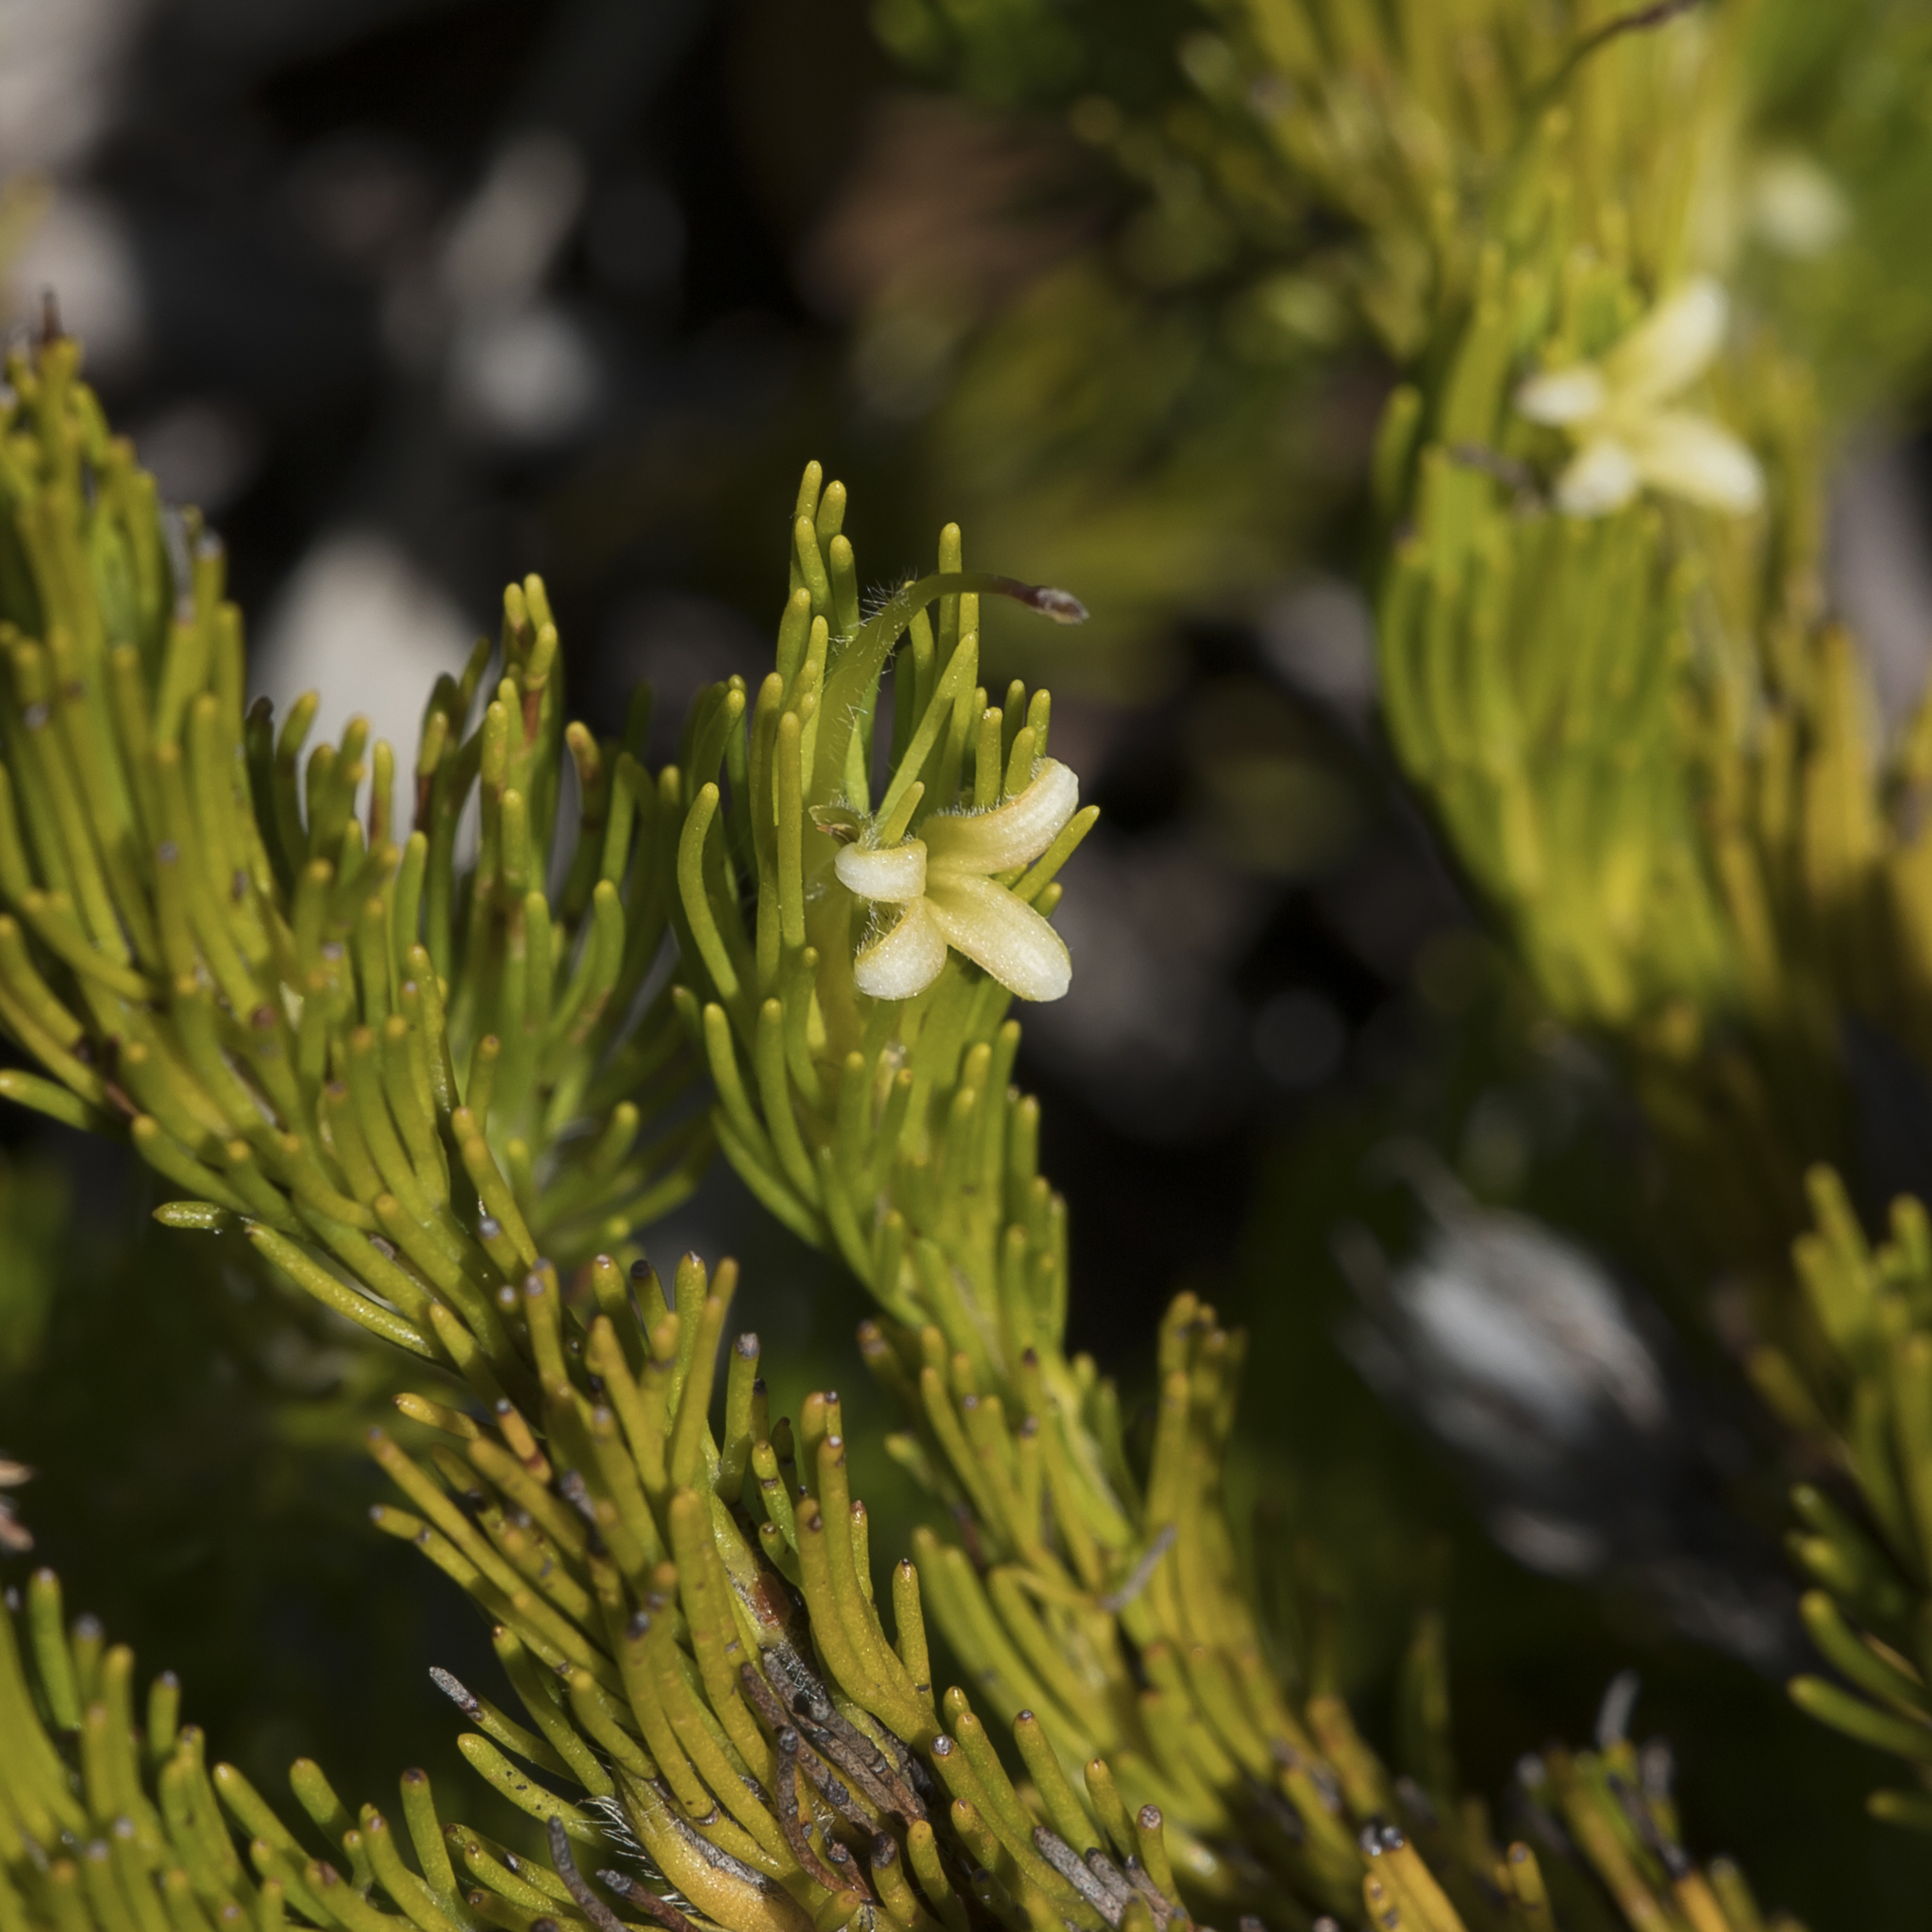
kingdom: Plantae
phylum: Tracheophyta
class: Magnoliopsida
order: Proteales
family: Proteaceae
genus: Adenanthos
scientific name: Adenanthos terminalis
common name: Yellow gland-flower
